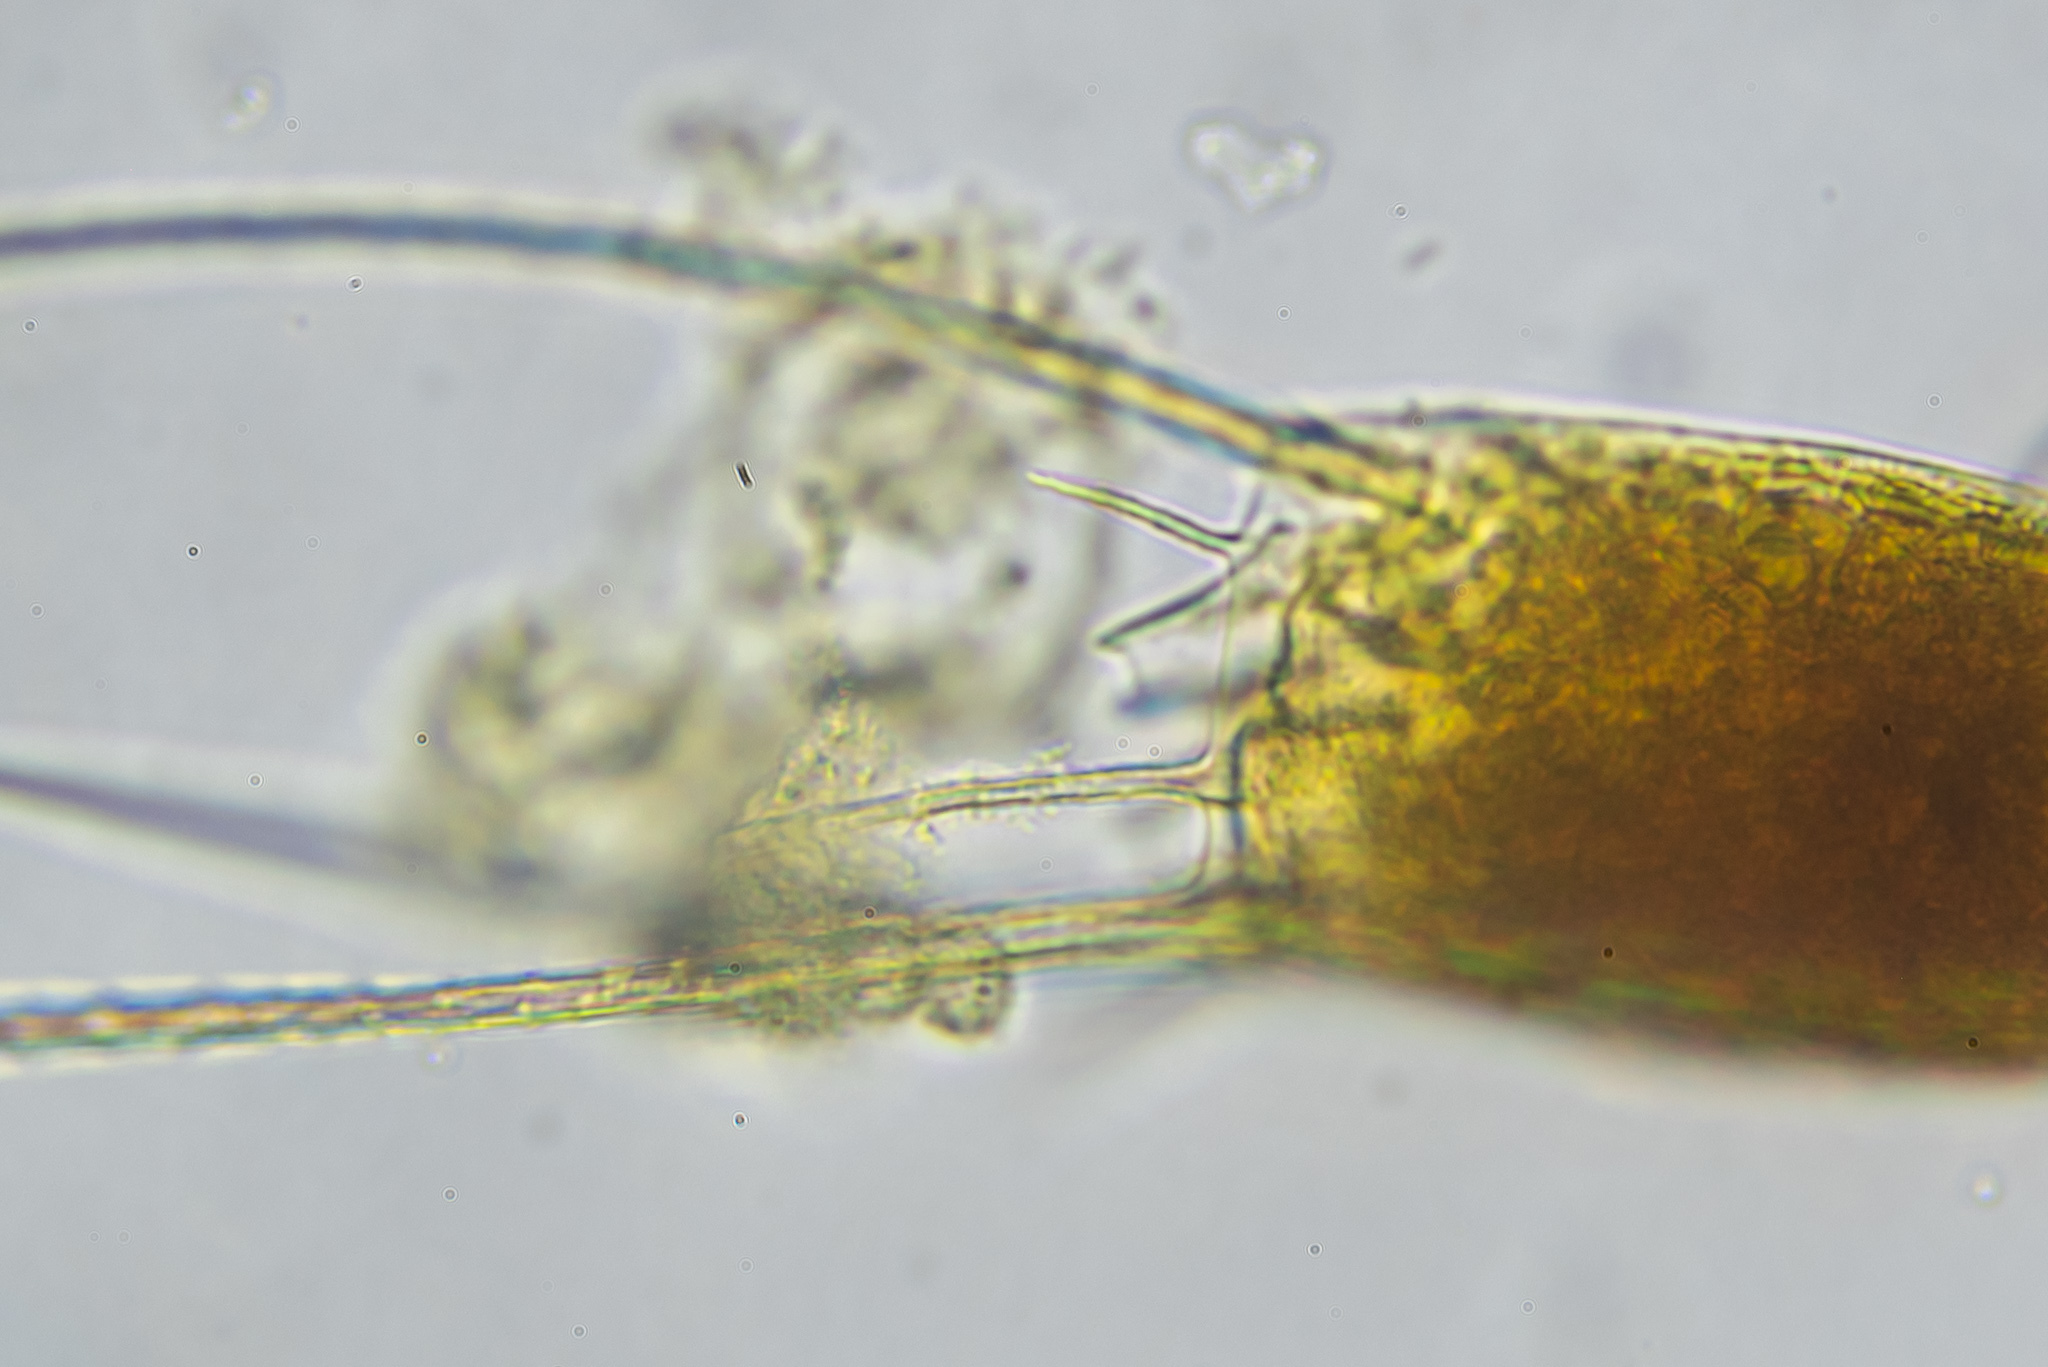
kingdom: Animalia
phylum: Rotifera
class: Eurotatoria
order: Ploima
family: Brachionidae
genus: Kellicottia
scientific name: Kellicottia longispina
